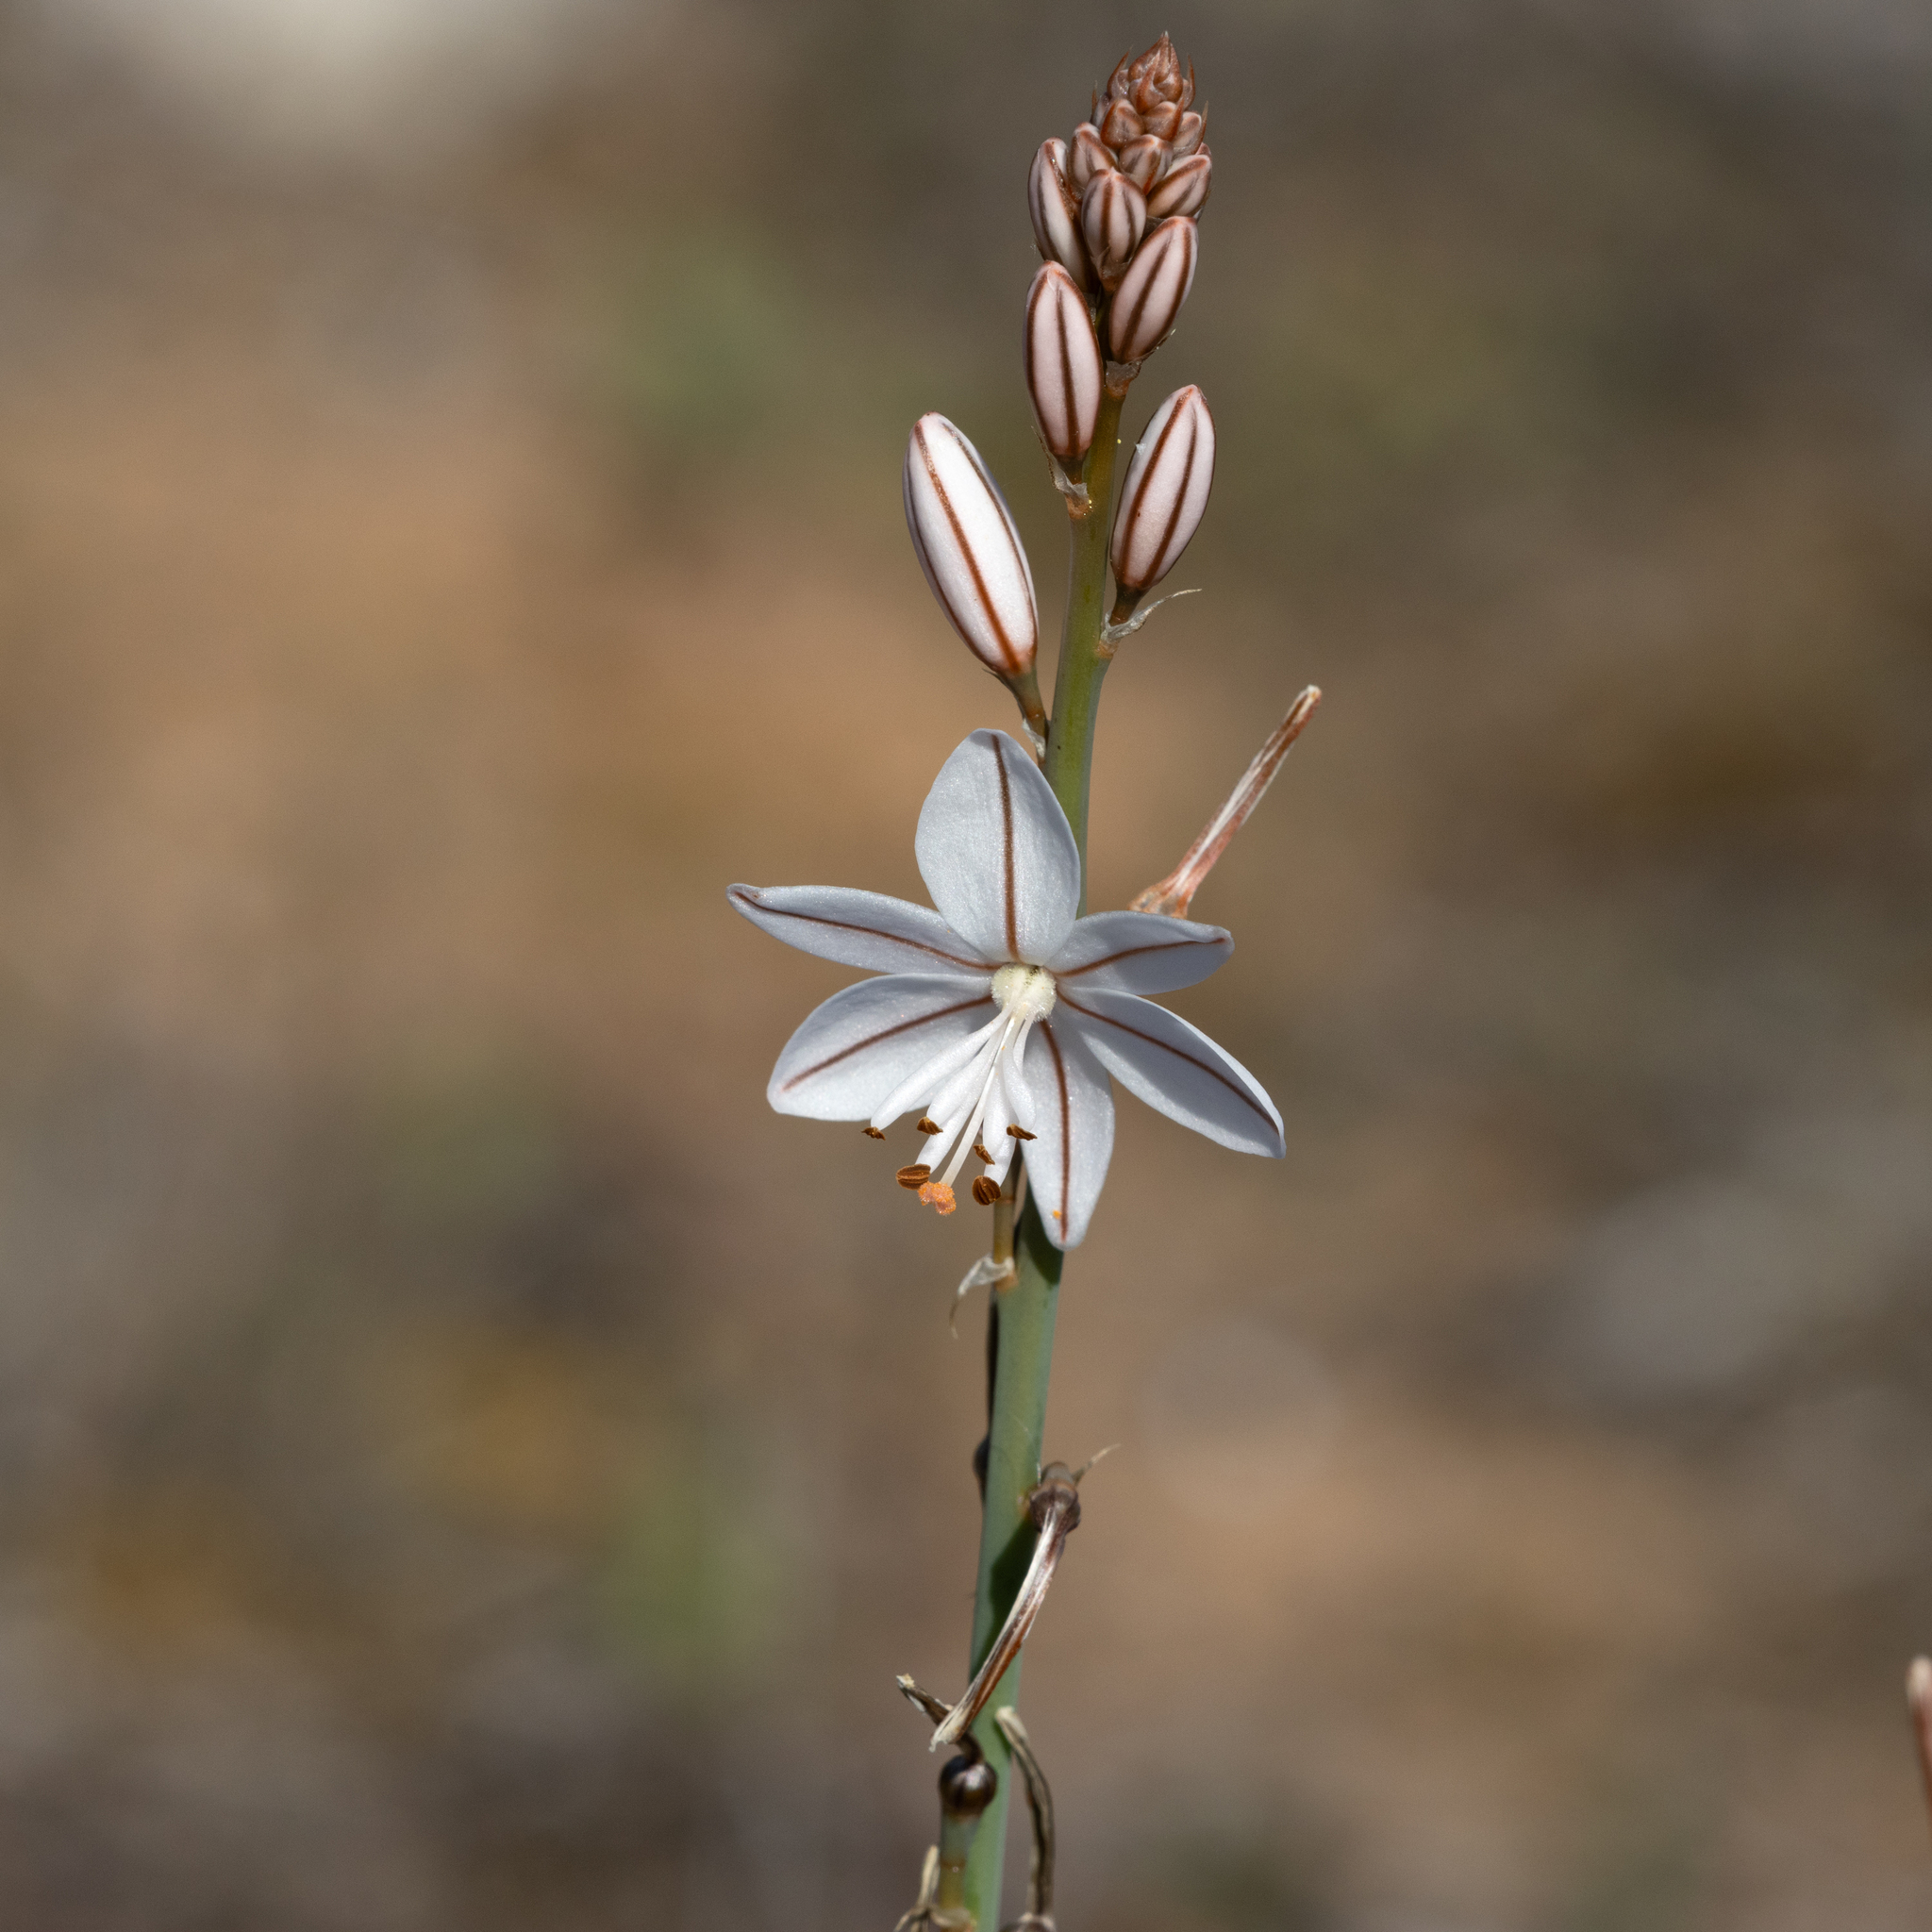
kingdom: Plantae
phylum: Tracheophyta
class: Liliopsida
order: Asparagales
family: Asphodelaceae
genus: Asphodelus
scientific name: Asphodelus fistulosus
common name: Onionweed
